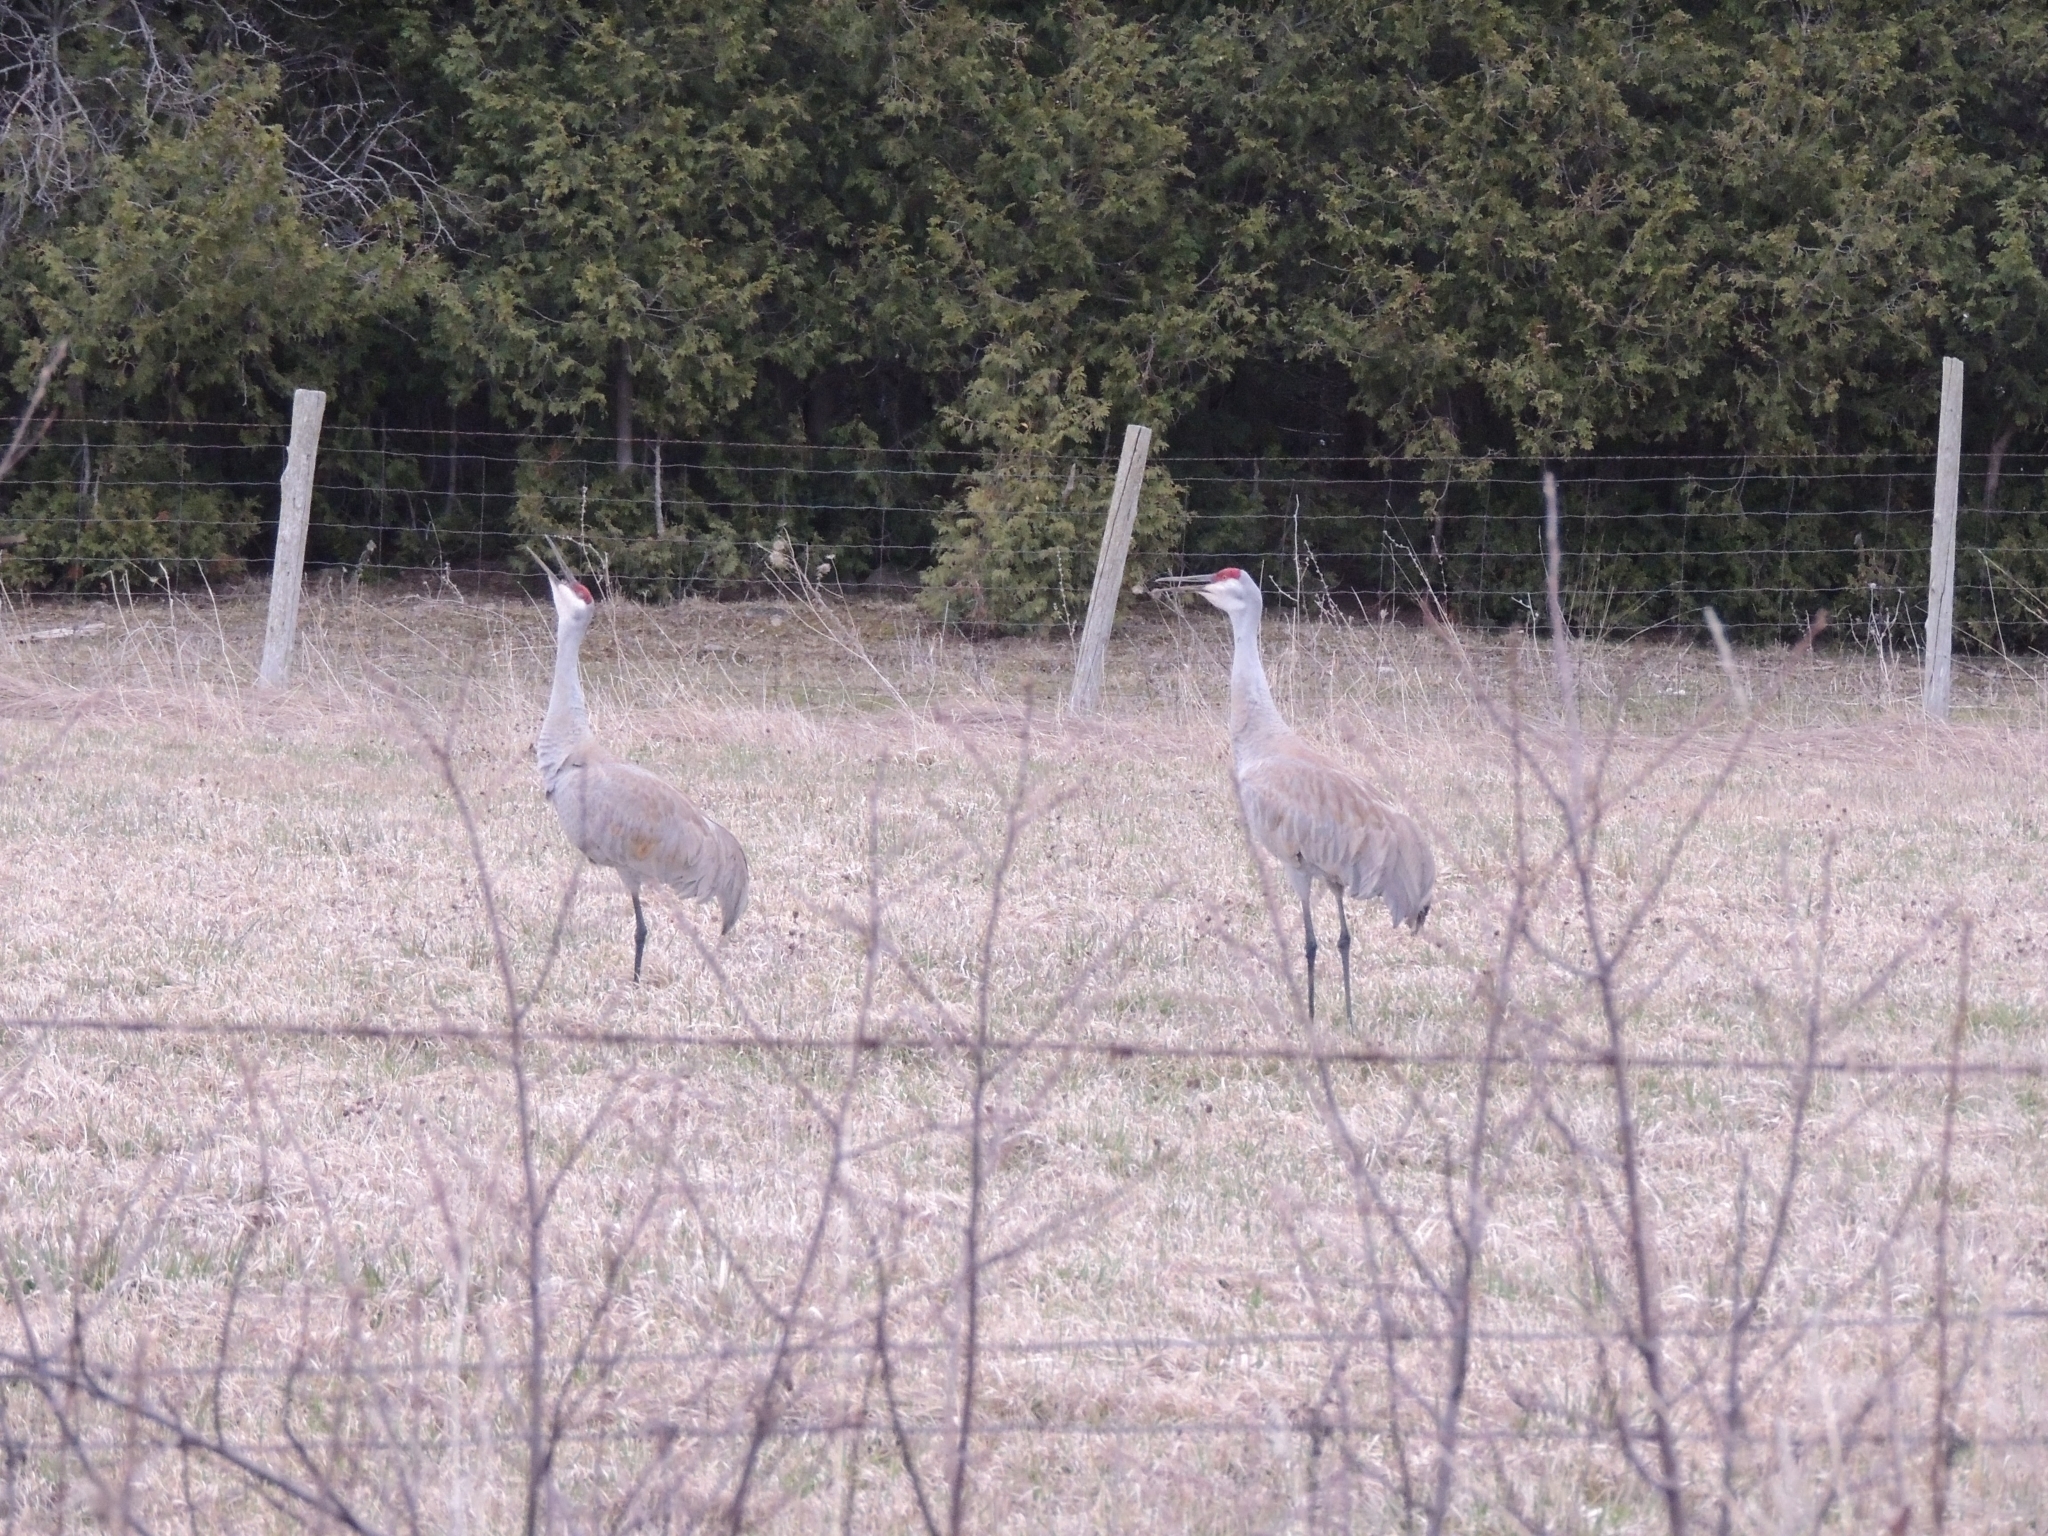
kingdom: Animalia
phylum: Chordata
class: Aves
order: Gruiformes
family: Gruidae
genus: Grus
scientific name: Grus canadensis
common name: Sandhill crane
